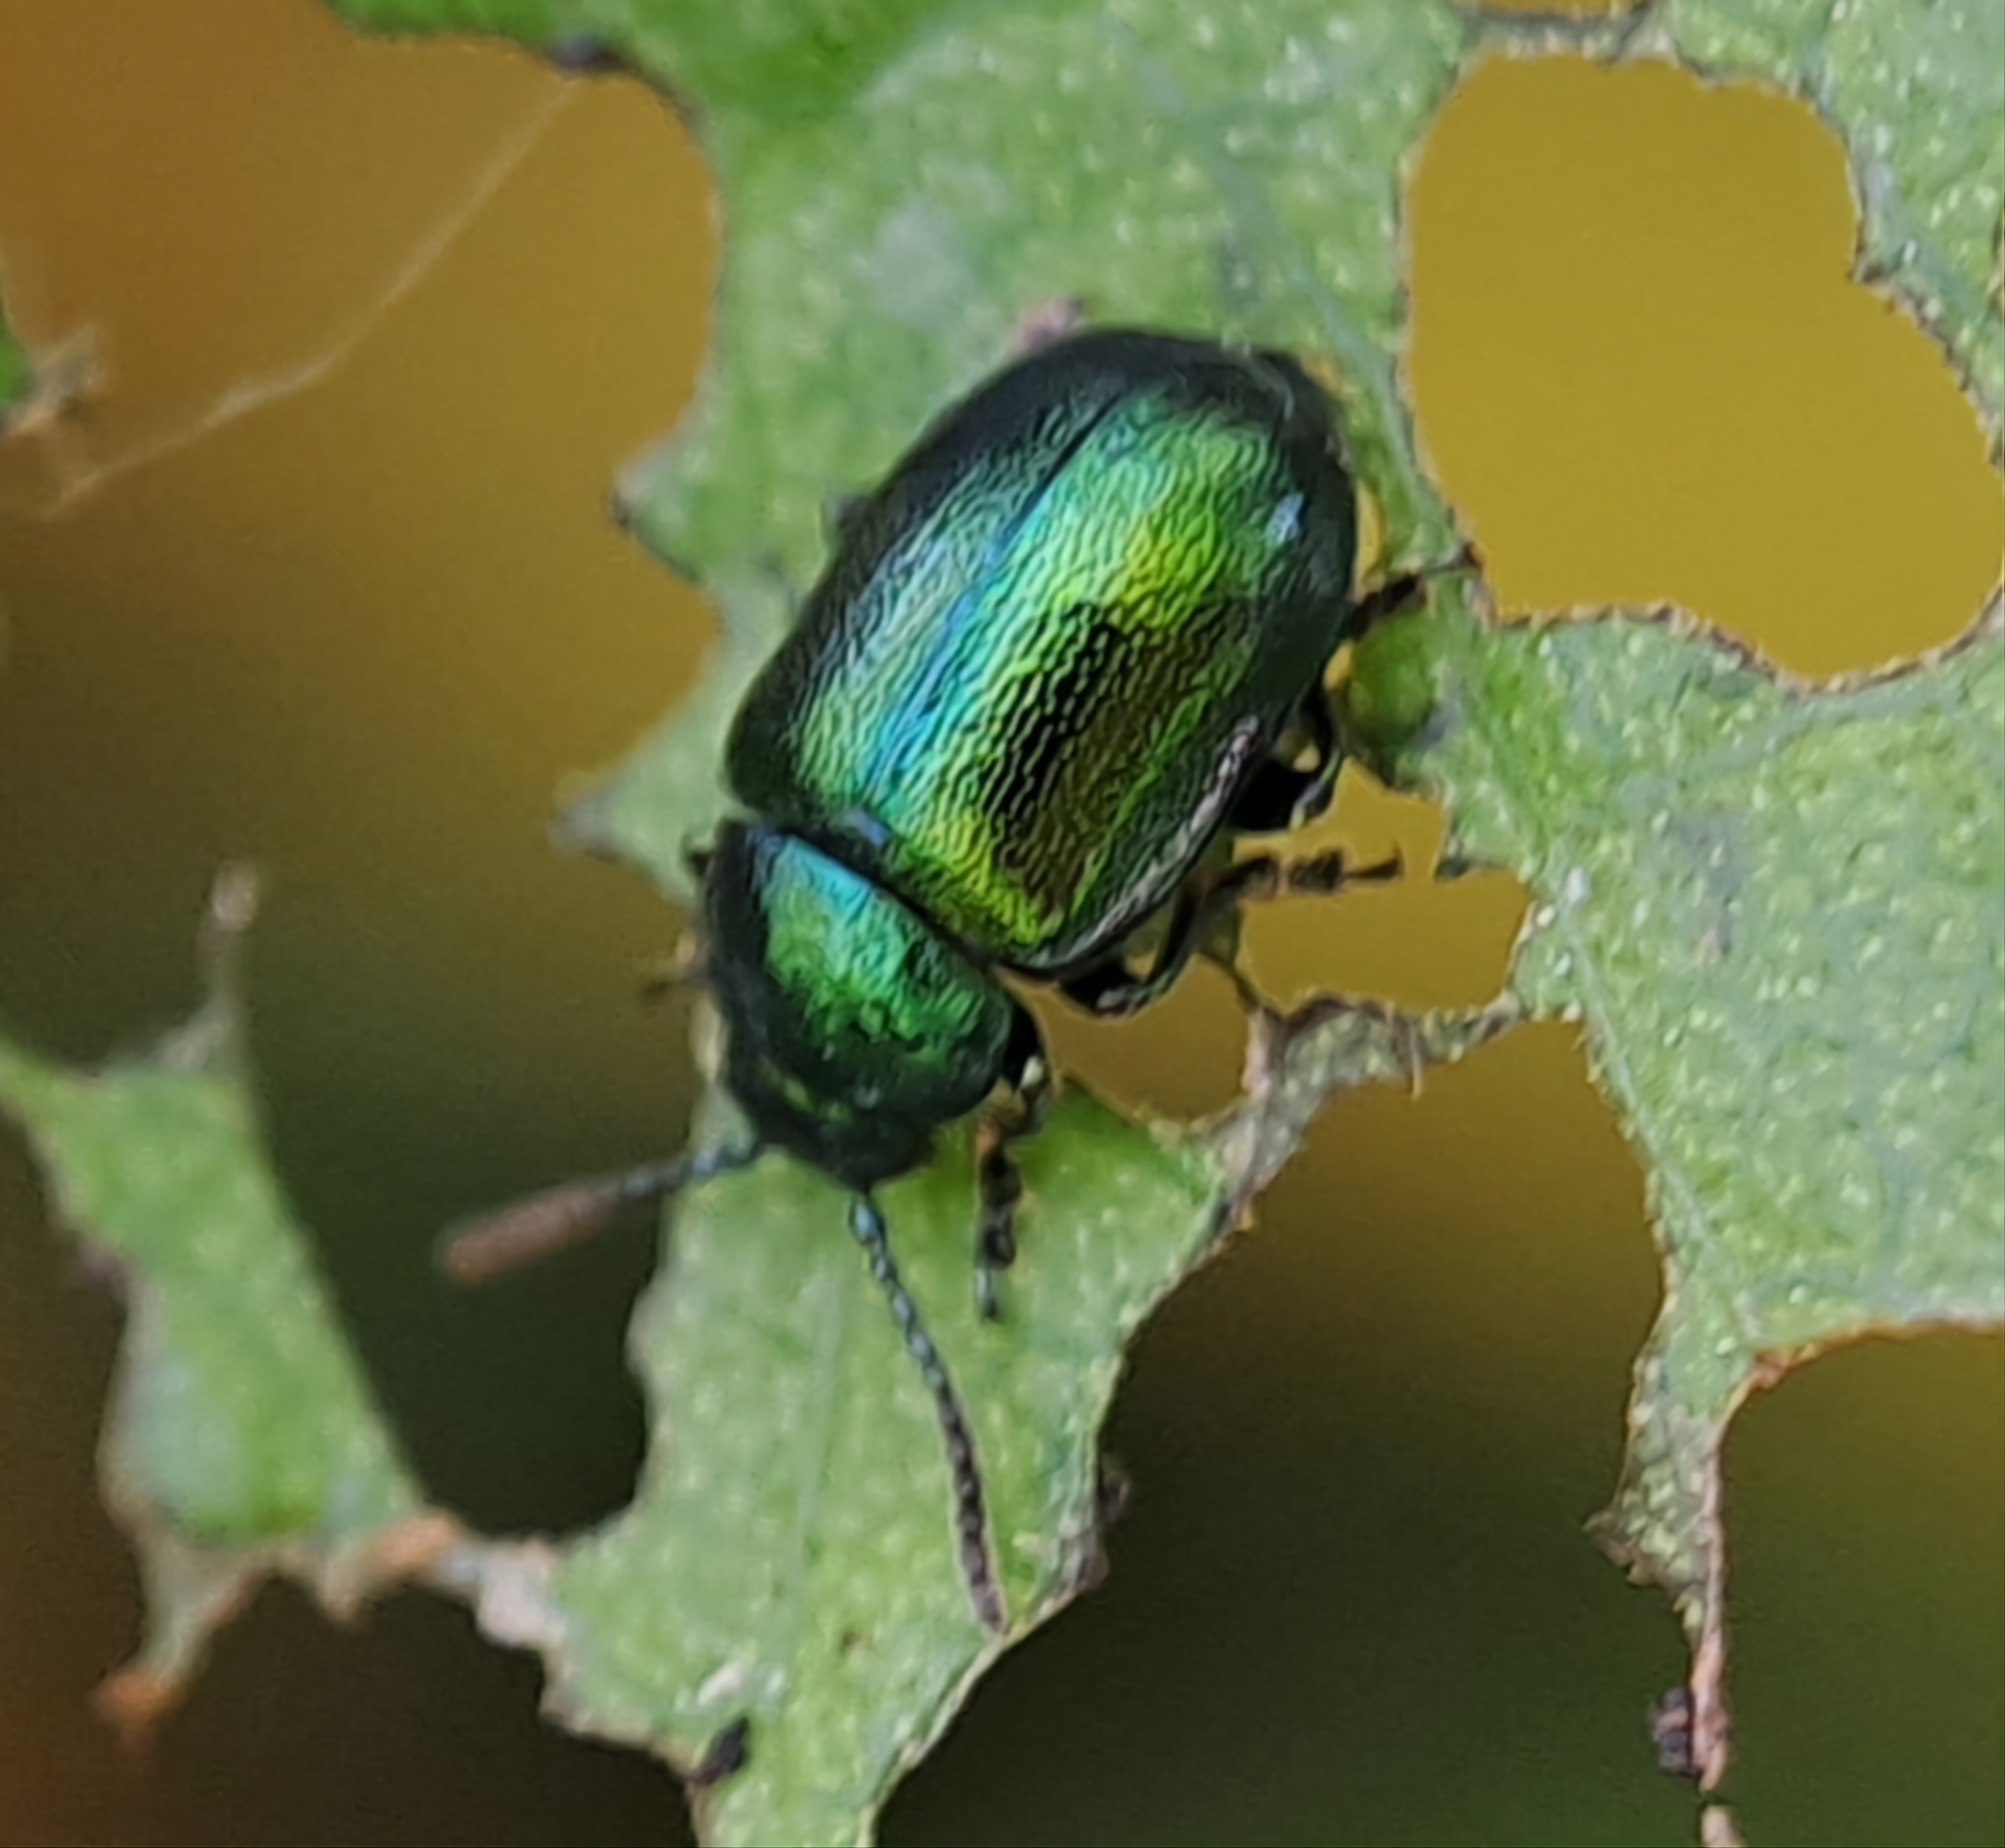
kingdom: Animalia
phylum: Arthropoda
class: Insecta
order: Coleoptera
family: Chrysomelidae
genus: Gastrophysa
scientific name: Gastrophysa viridula
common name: Green dock beetle
